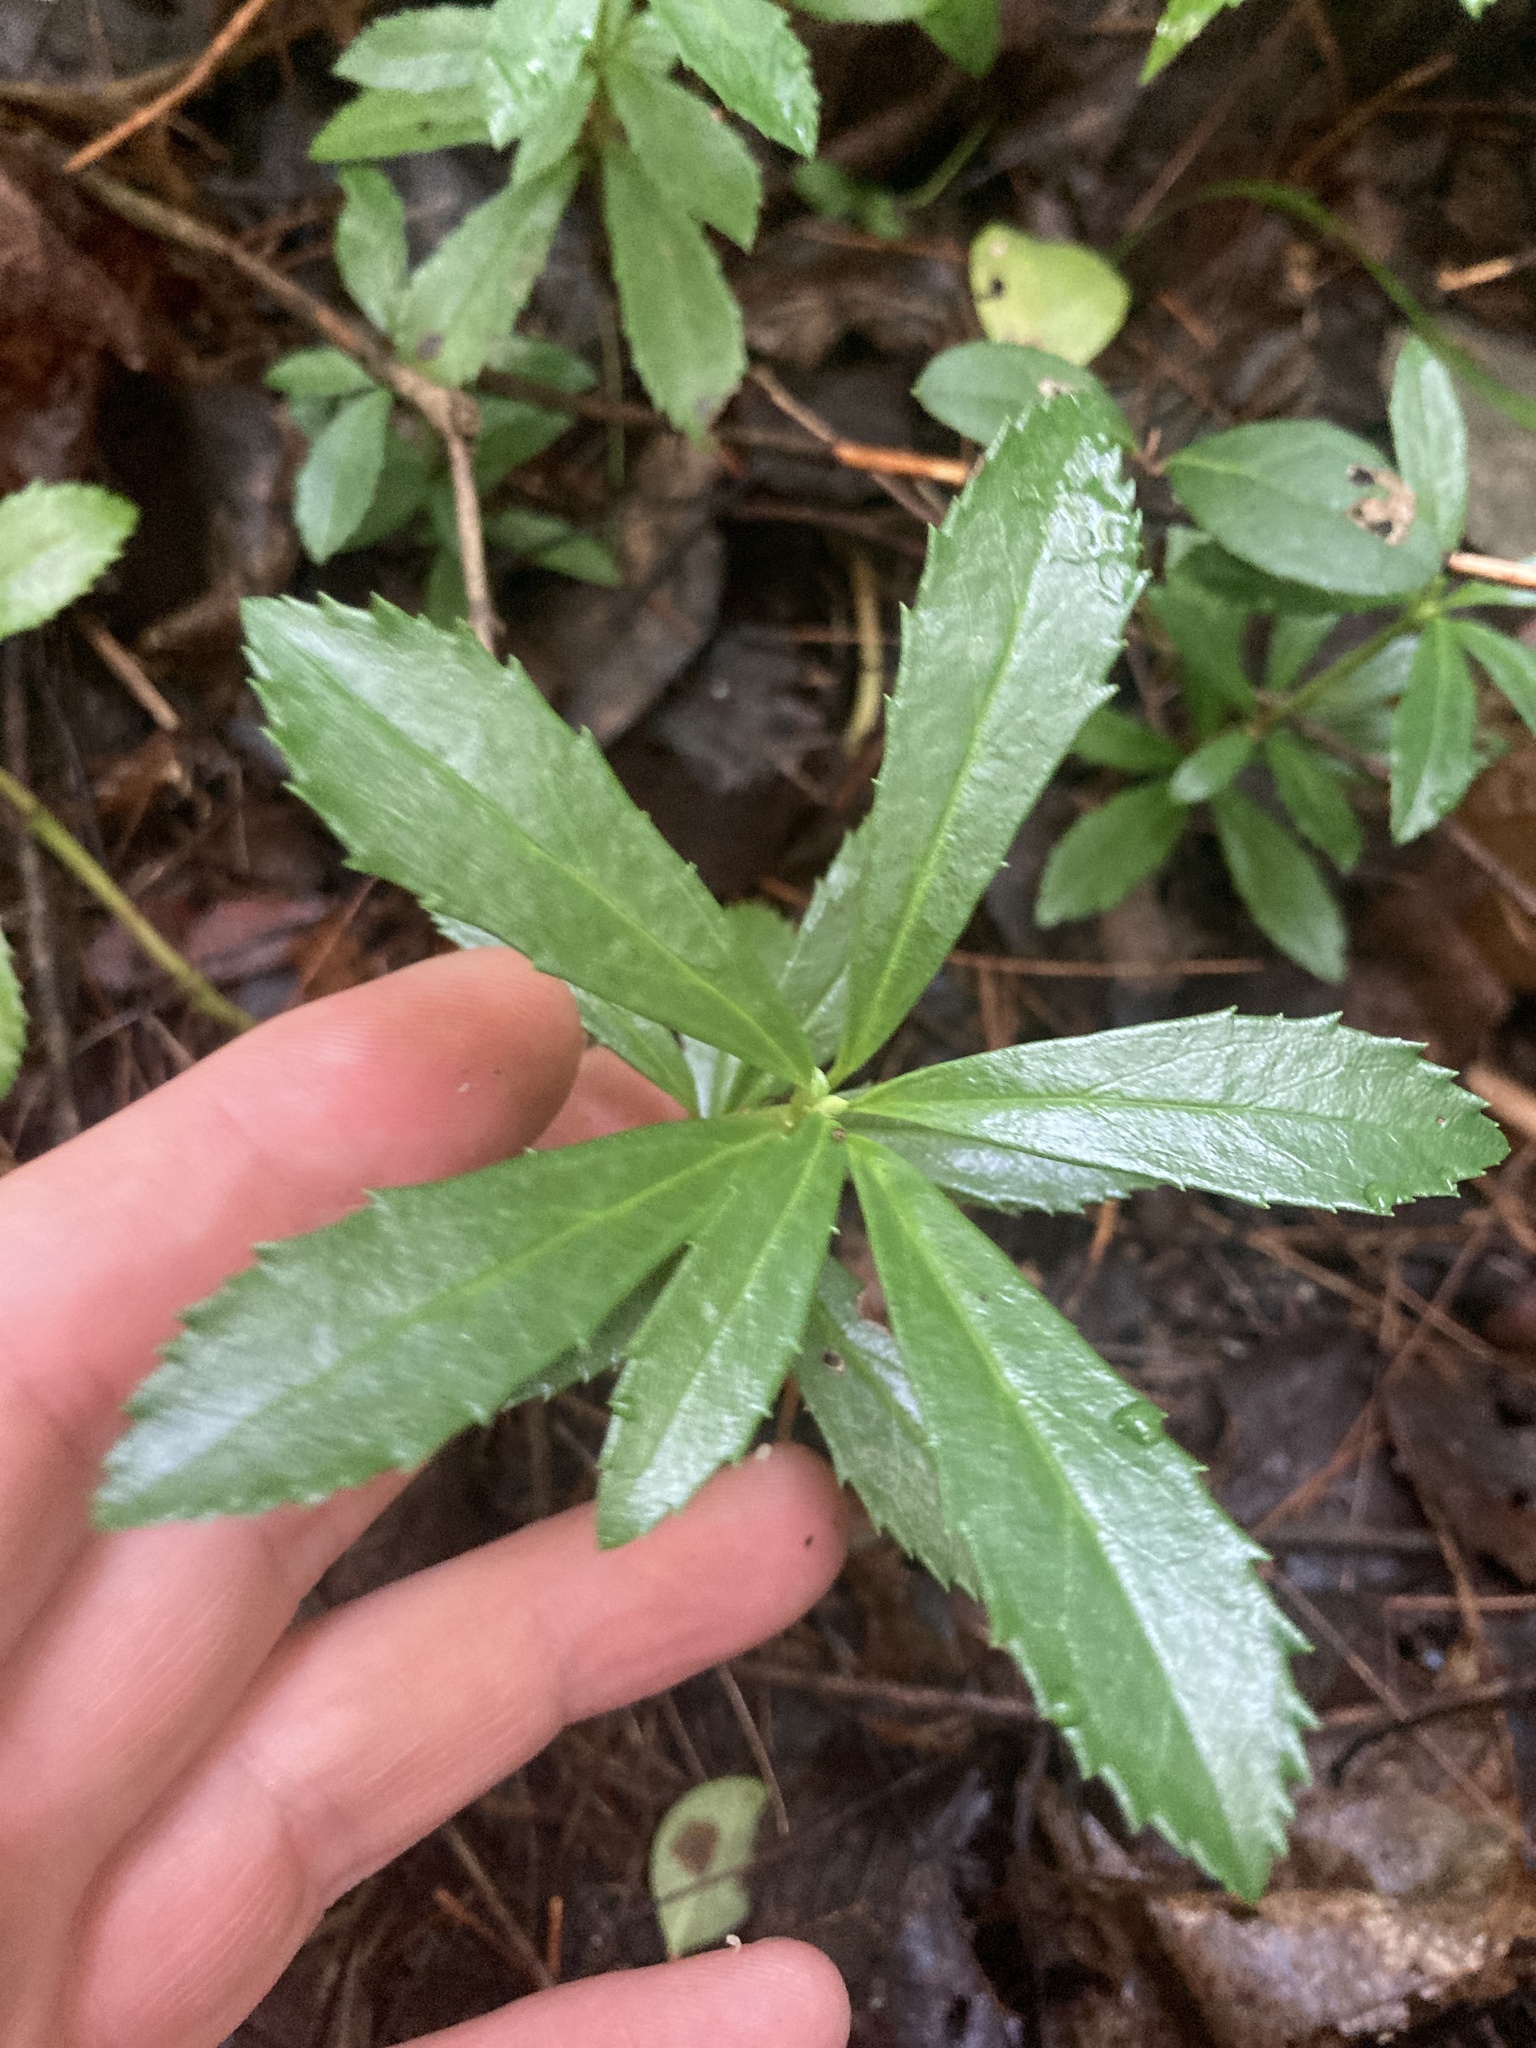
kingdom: Plantae
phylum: Tracheophyta
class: Magnoliopsida
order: Ericales
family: Ericaceae
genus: Chimaphila
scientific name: Chimaphila umbellata
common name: Pipsissewa
